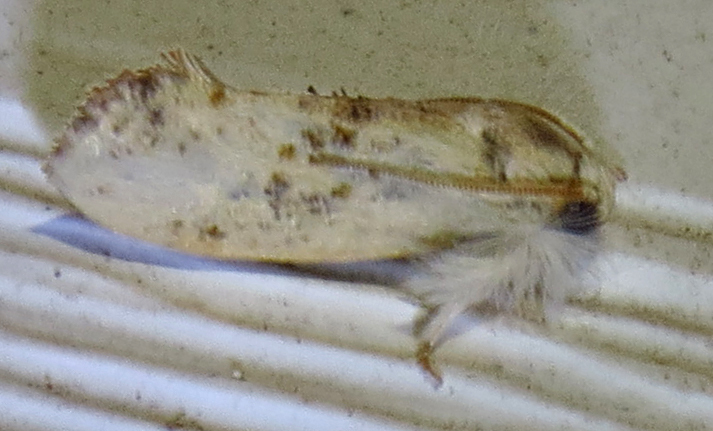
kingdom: Animalia
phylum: Arthropoda
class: Insecta
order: Lepidoptera
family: Tineidae
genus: Acrolophus
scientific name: Acrolophus mycetophagus
